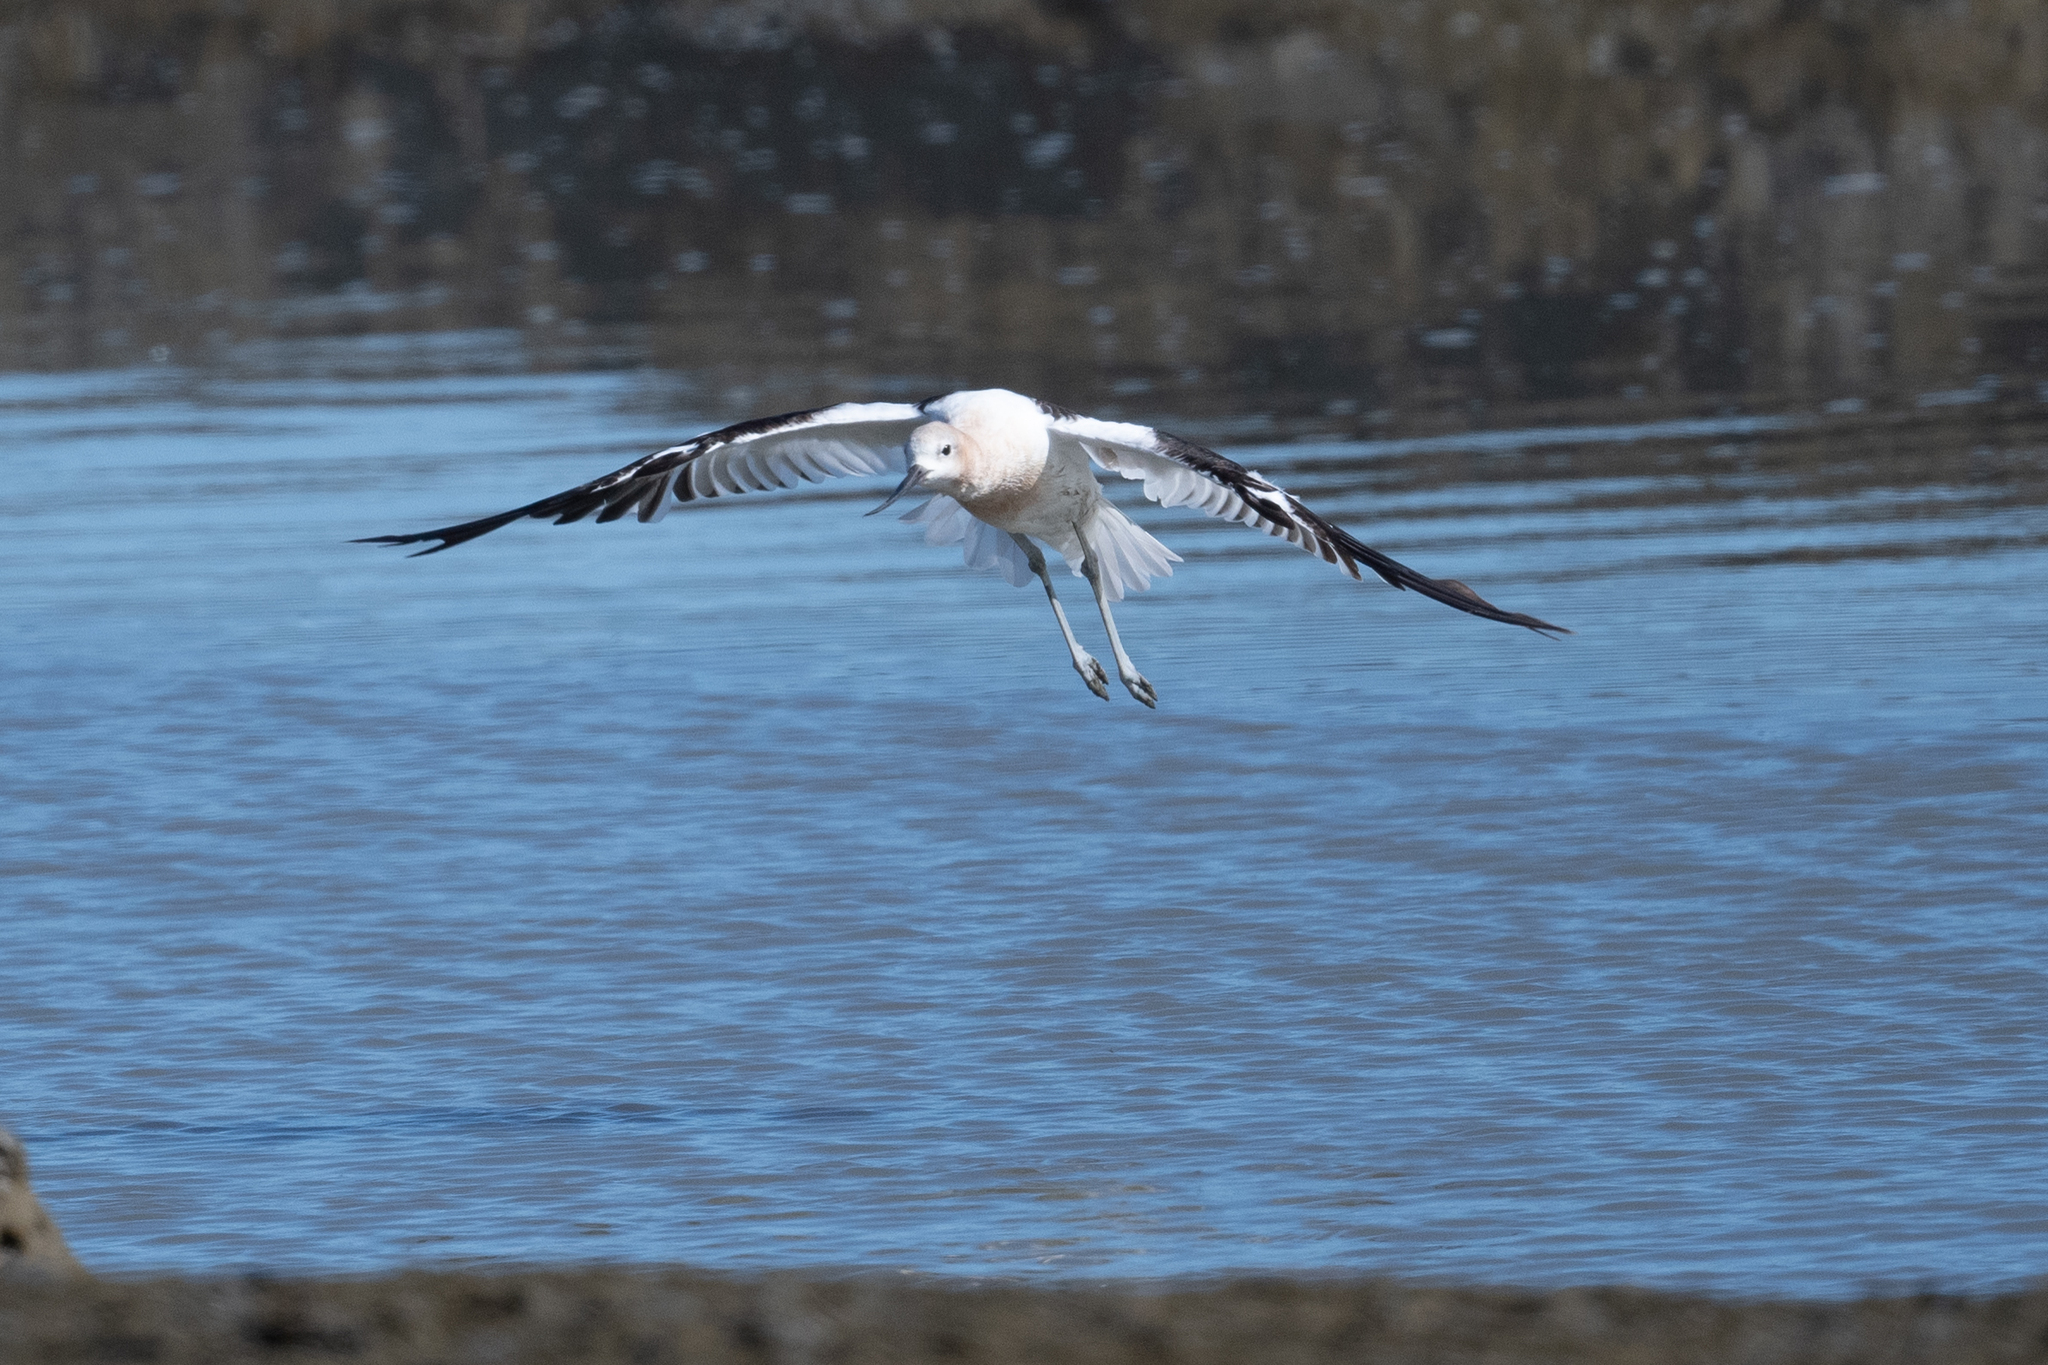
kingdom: Animalia
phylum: Chordata
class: Aves
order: Charadriiformes
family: Recurvirostridae
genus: Recurvirostra
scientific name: Recurvirostra americana
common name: American avocet
